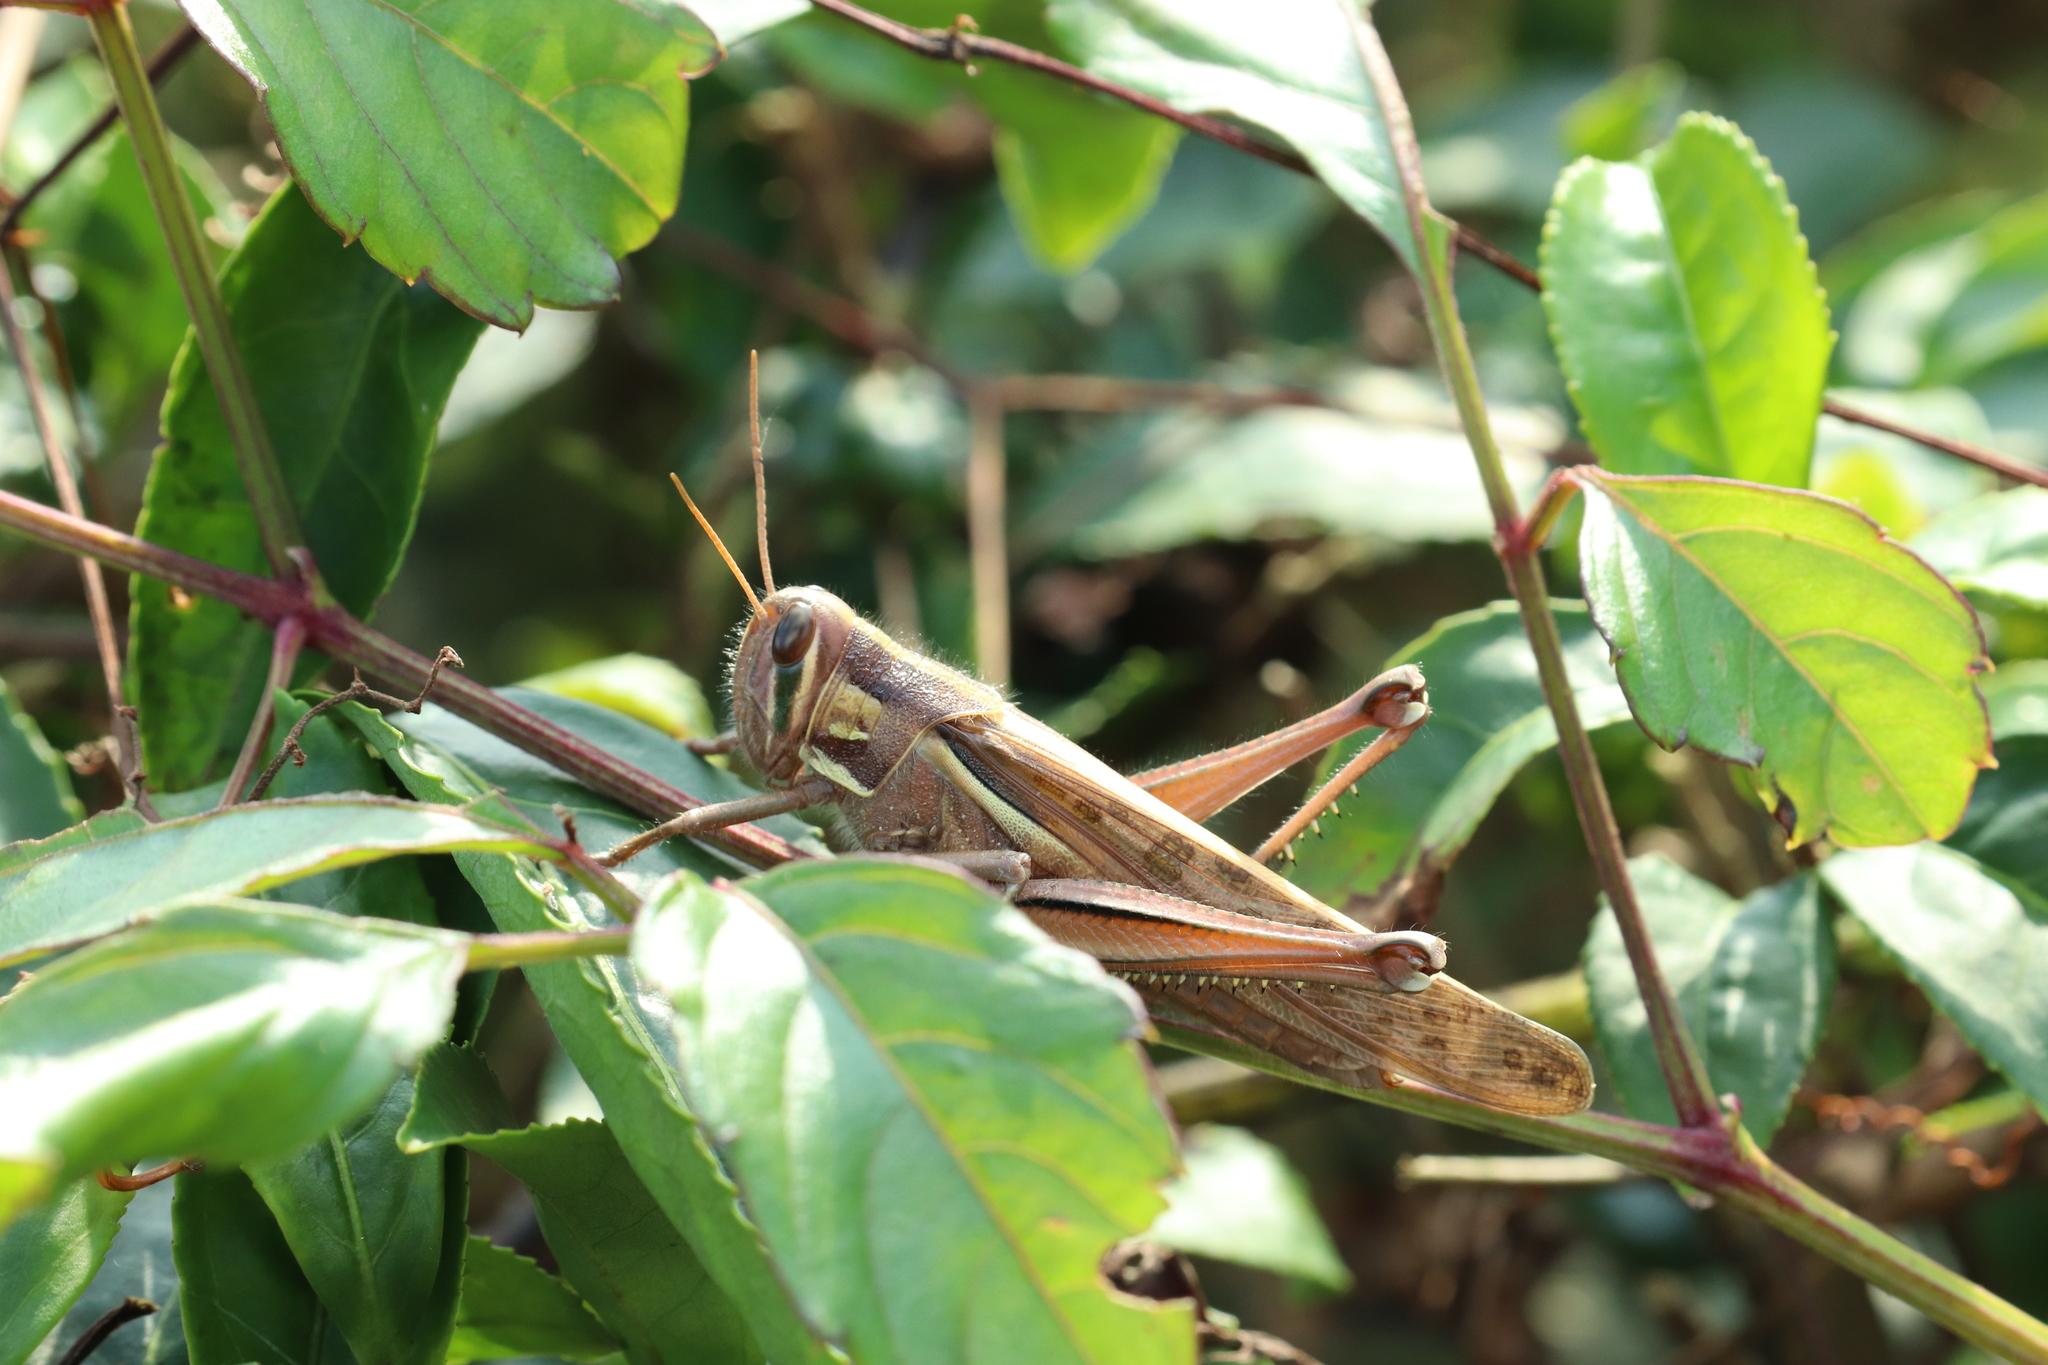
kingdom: Animalia
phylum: Arthropoda
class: Insecta
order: Orthoptera
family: Acrididae
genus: Patanga
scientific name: Patanga japonica
